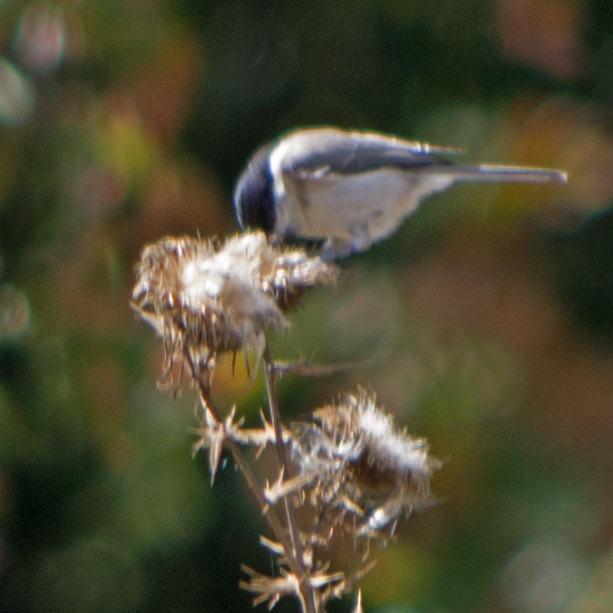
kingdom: Animalia
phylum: Chordata
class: Aves
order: Passeriformes
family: Paridae
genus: Poecile
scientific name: Poecile palustris
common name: Marsh tit
